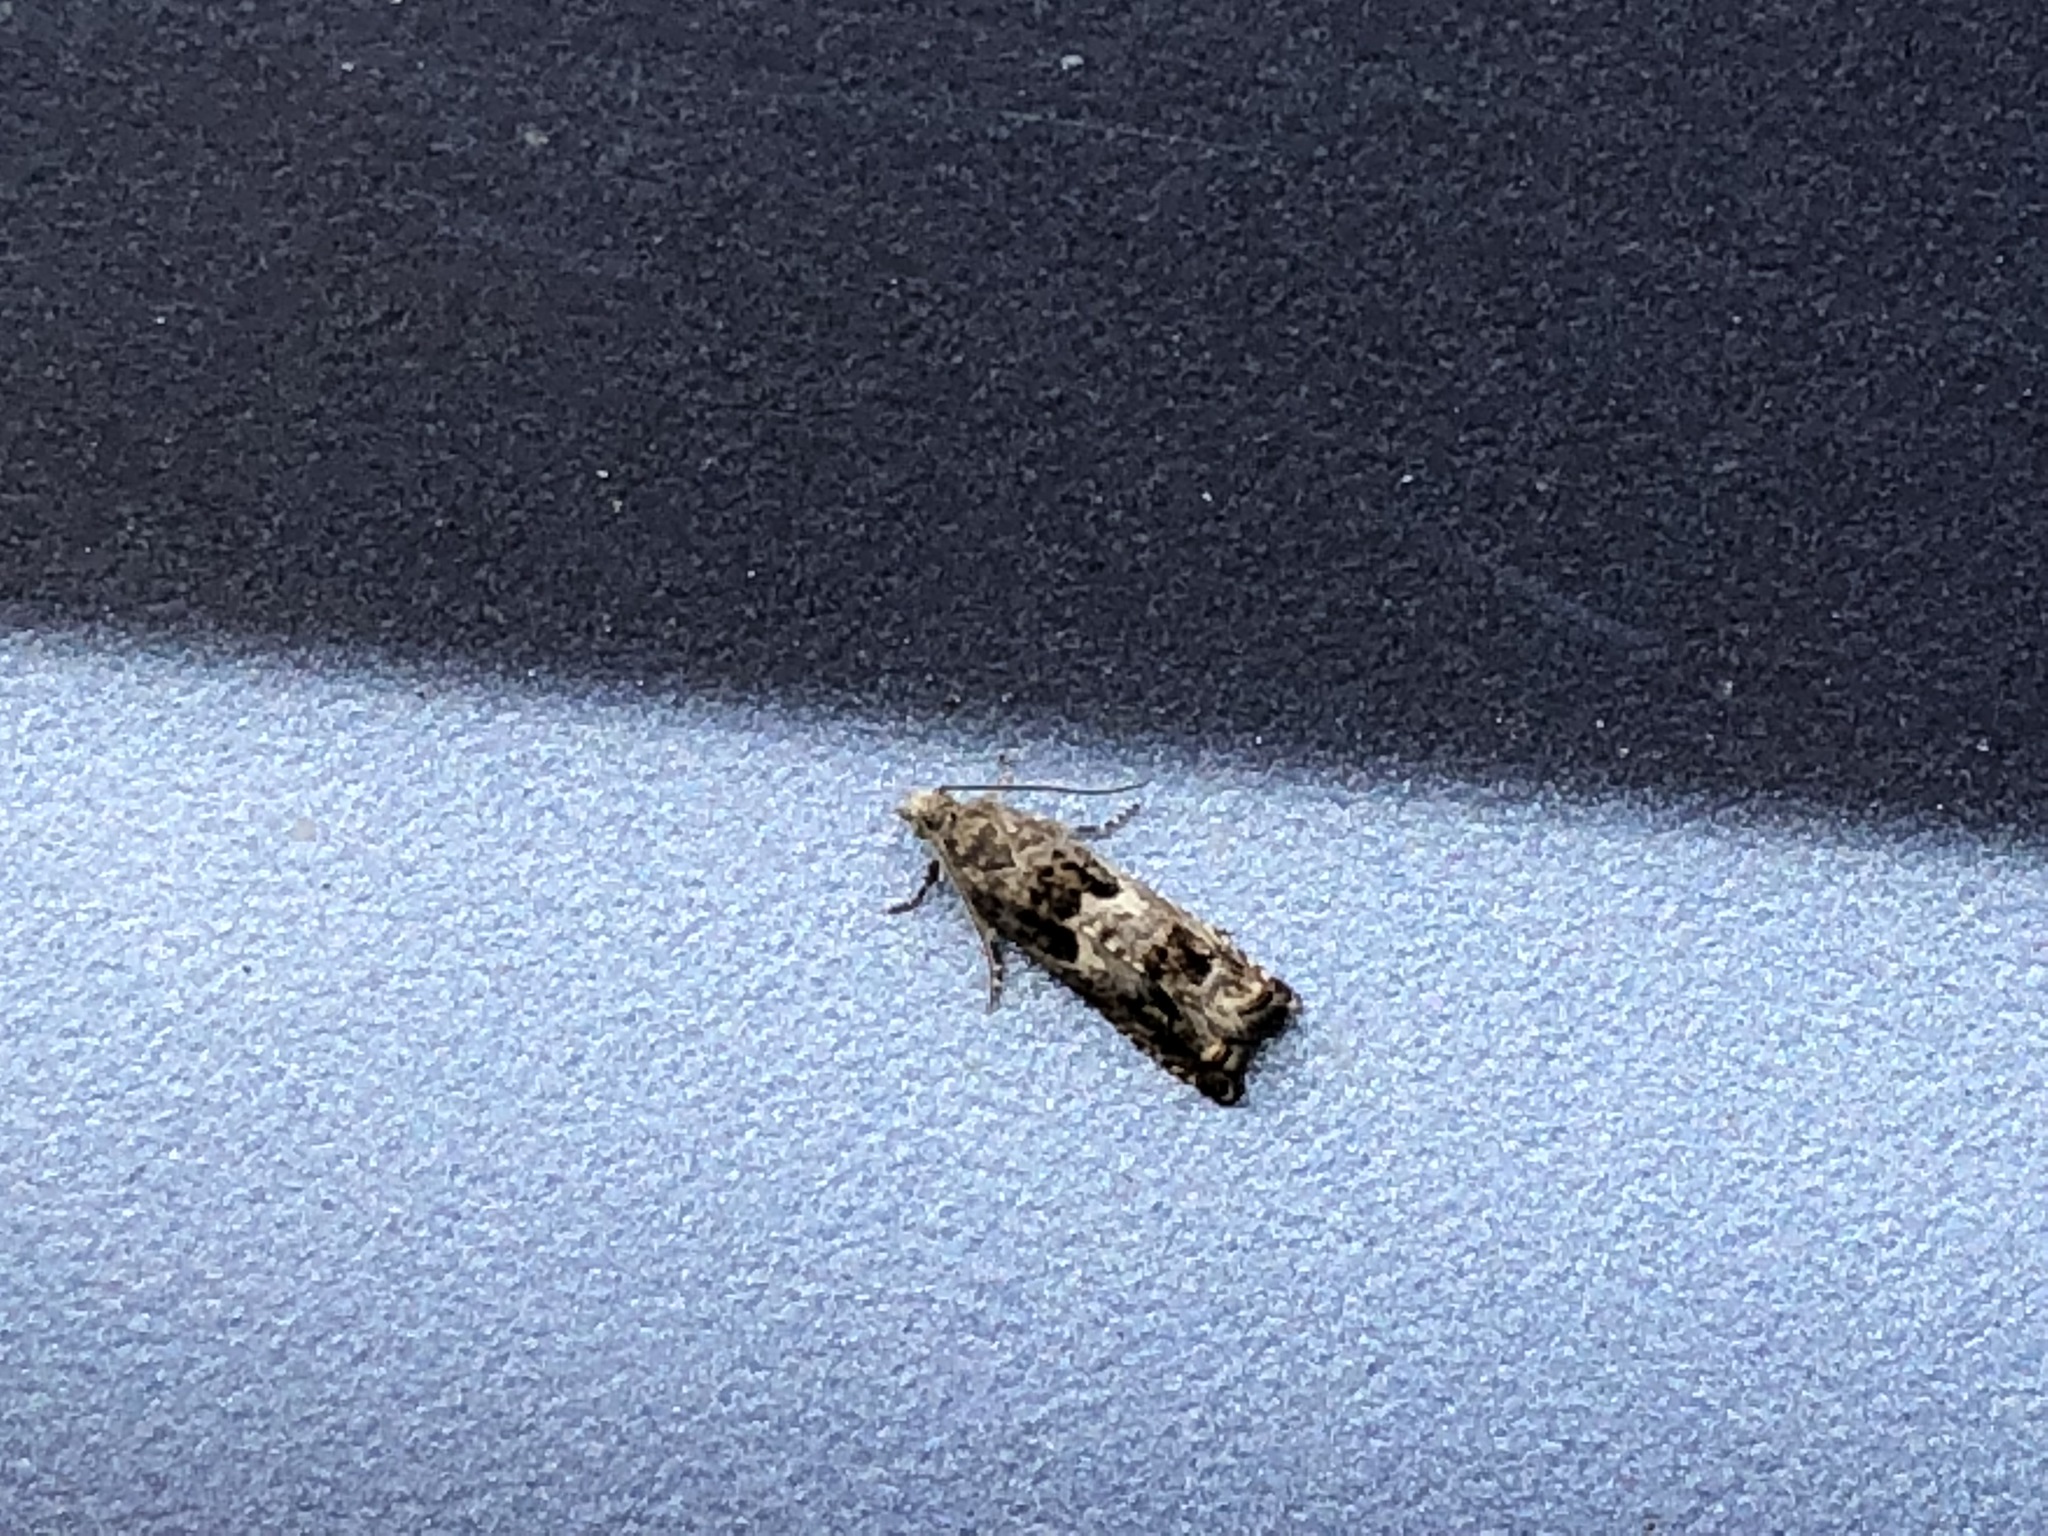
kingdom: Animalia
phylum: Arthropoda
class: Insecta
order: Lepidoptera
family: Tortricidae
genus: Epinotia
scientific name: Epinotia albangulana
